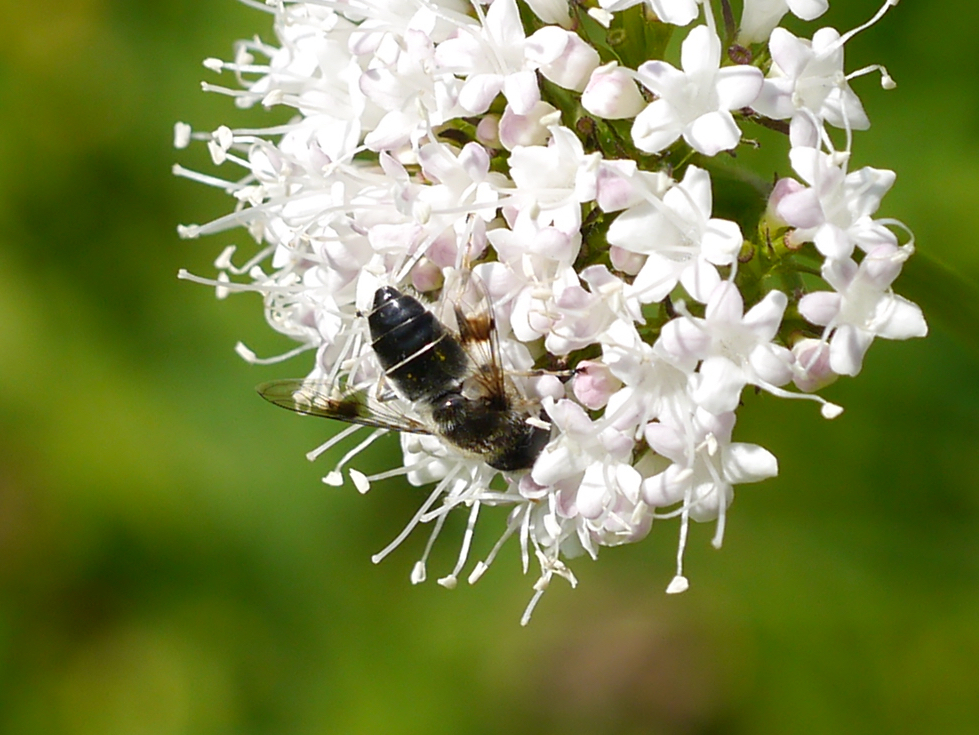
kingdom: Animalia
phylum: Arthropoda
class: Insecta
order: Diptera
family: Syrphidae
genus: Eristalis
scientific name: Eristalis rupium
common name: Hover fly
